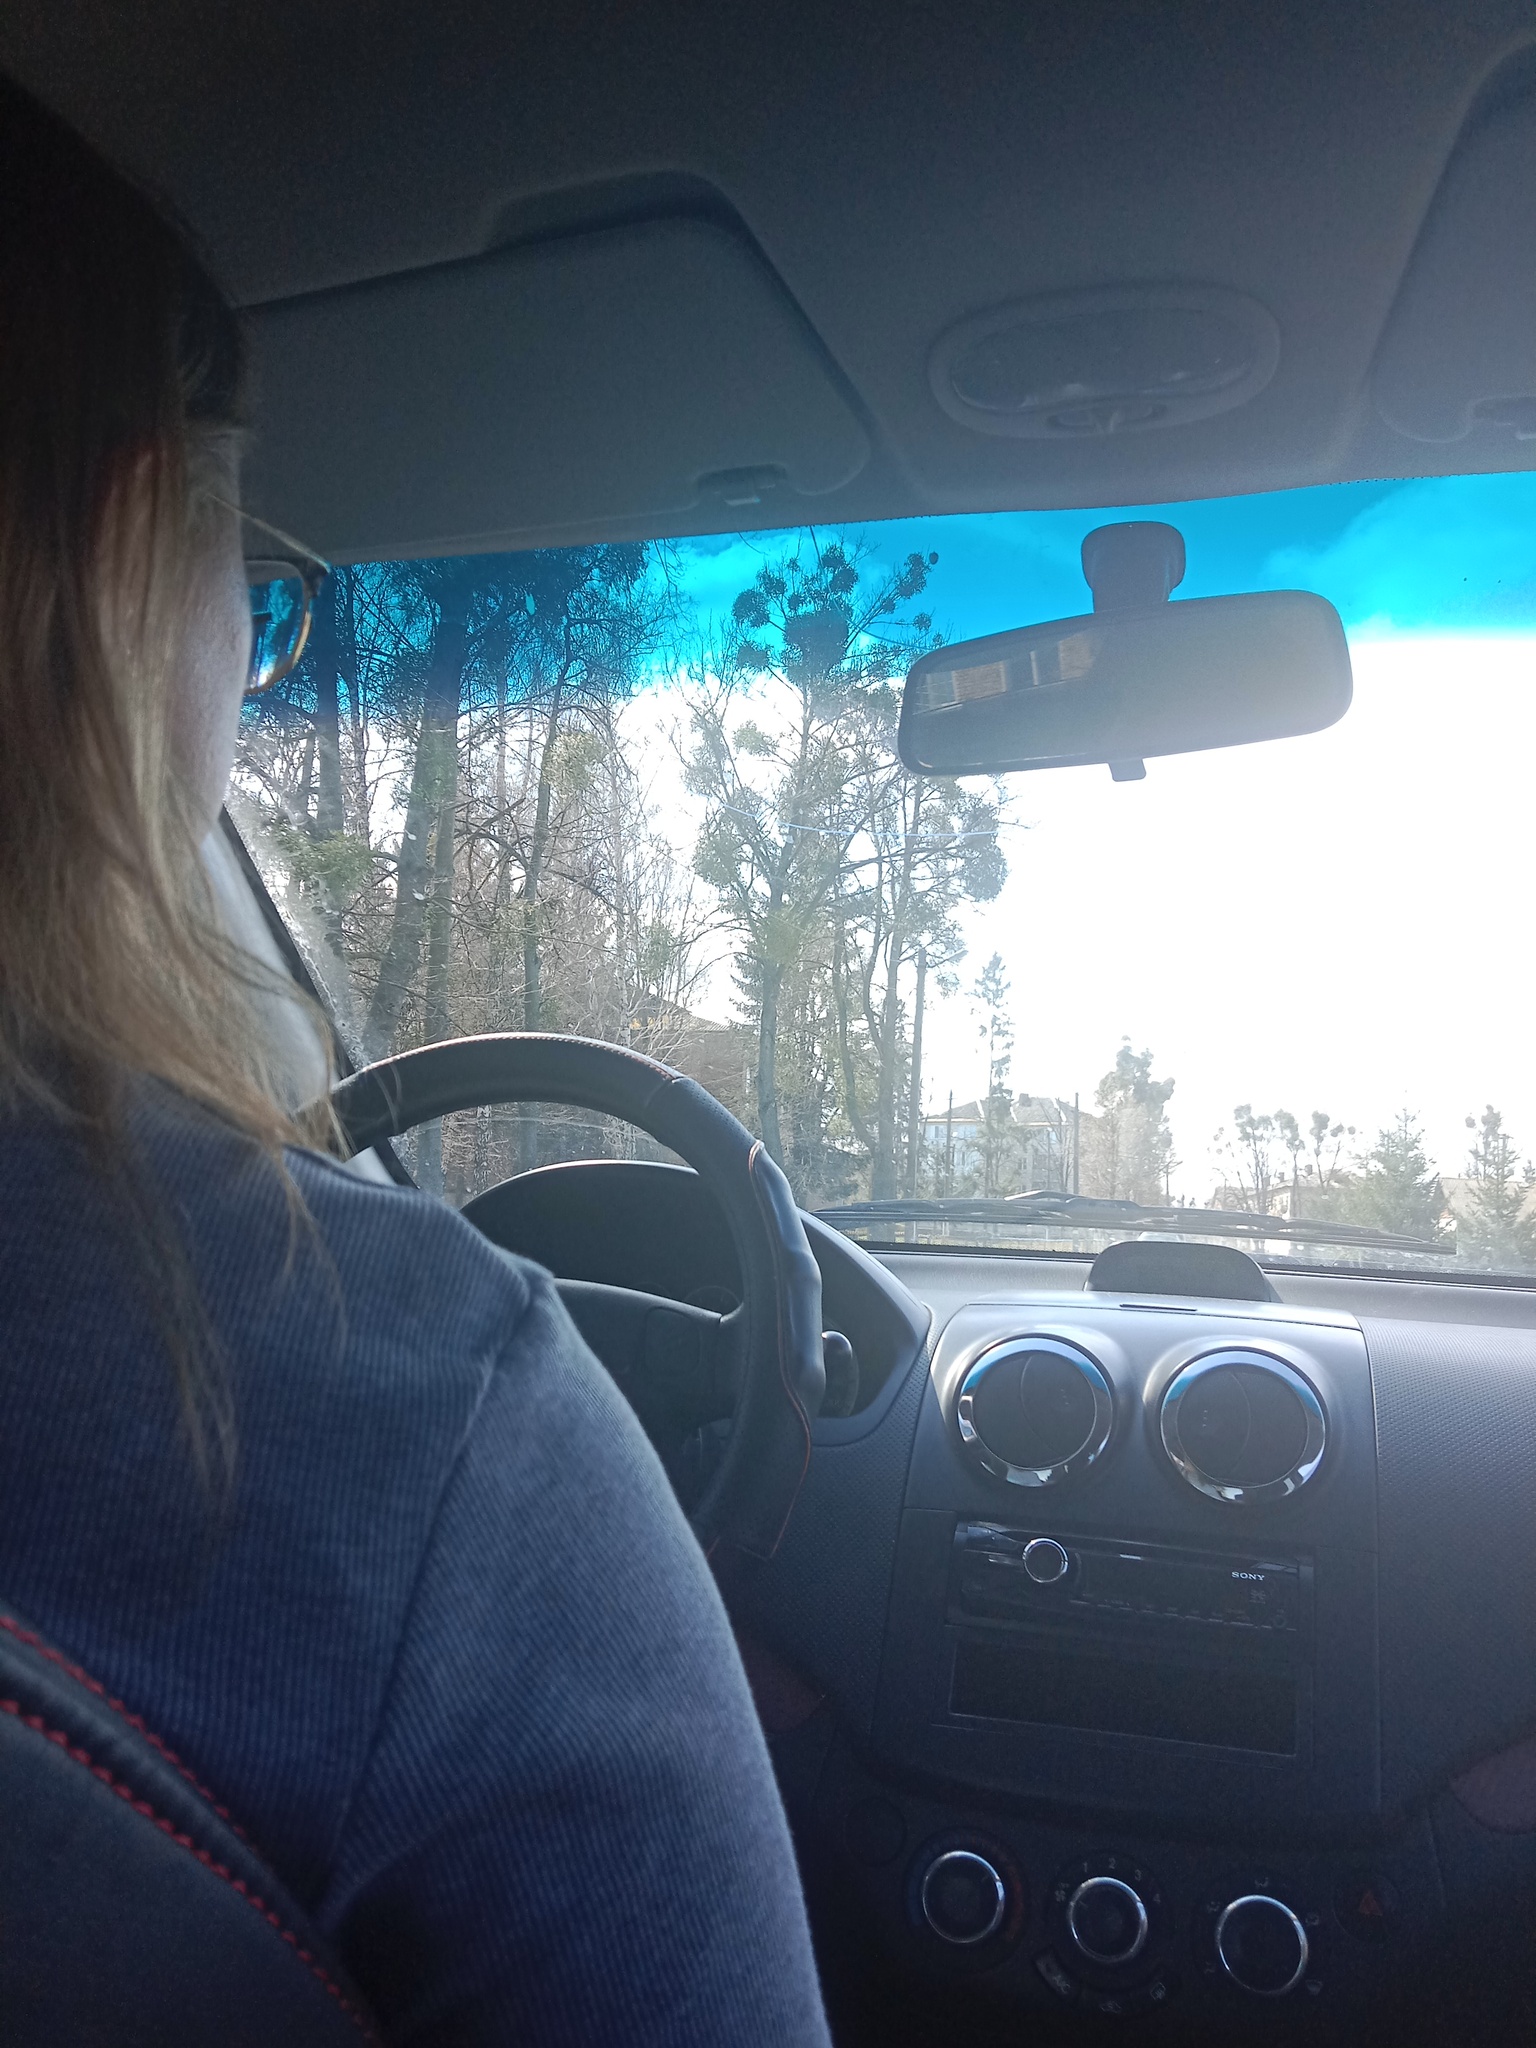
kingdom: Plantae
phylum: Tracheophyta
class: Magnoliopsida
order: Santalales
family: Viscaceae
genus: Viscum
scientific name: Viscum album
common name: Mistletoe
